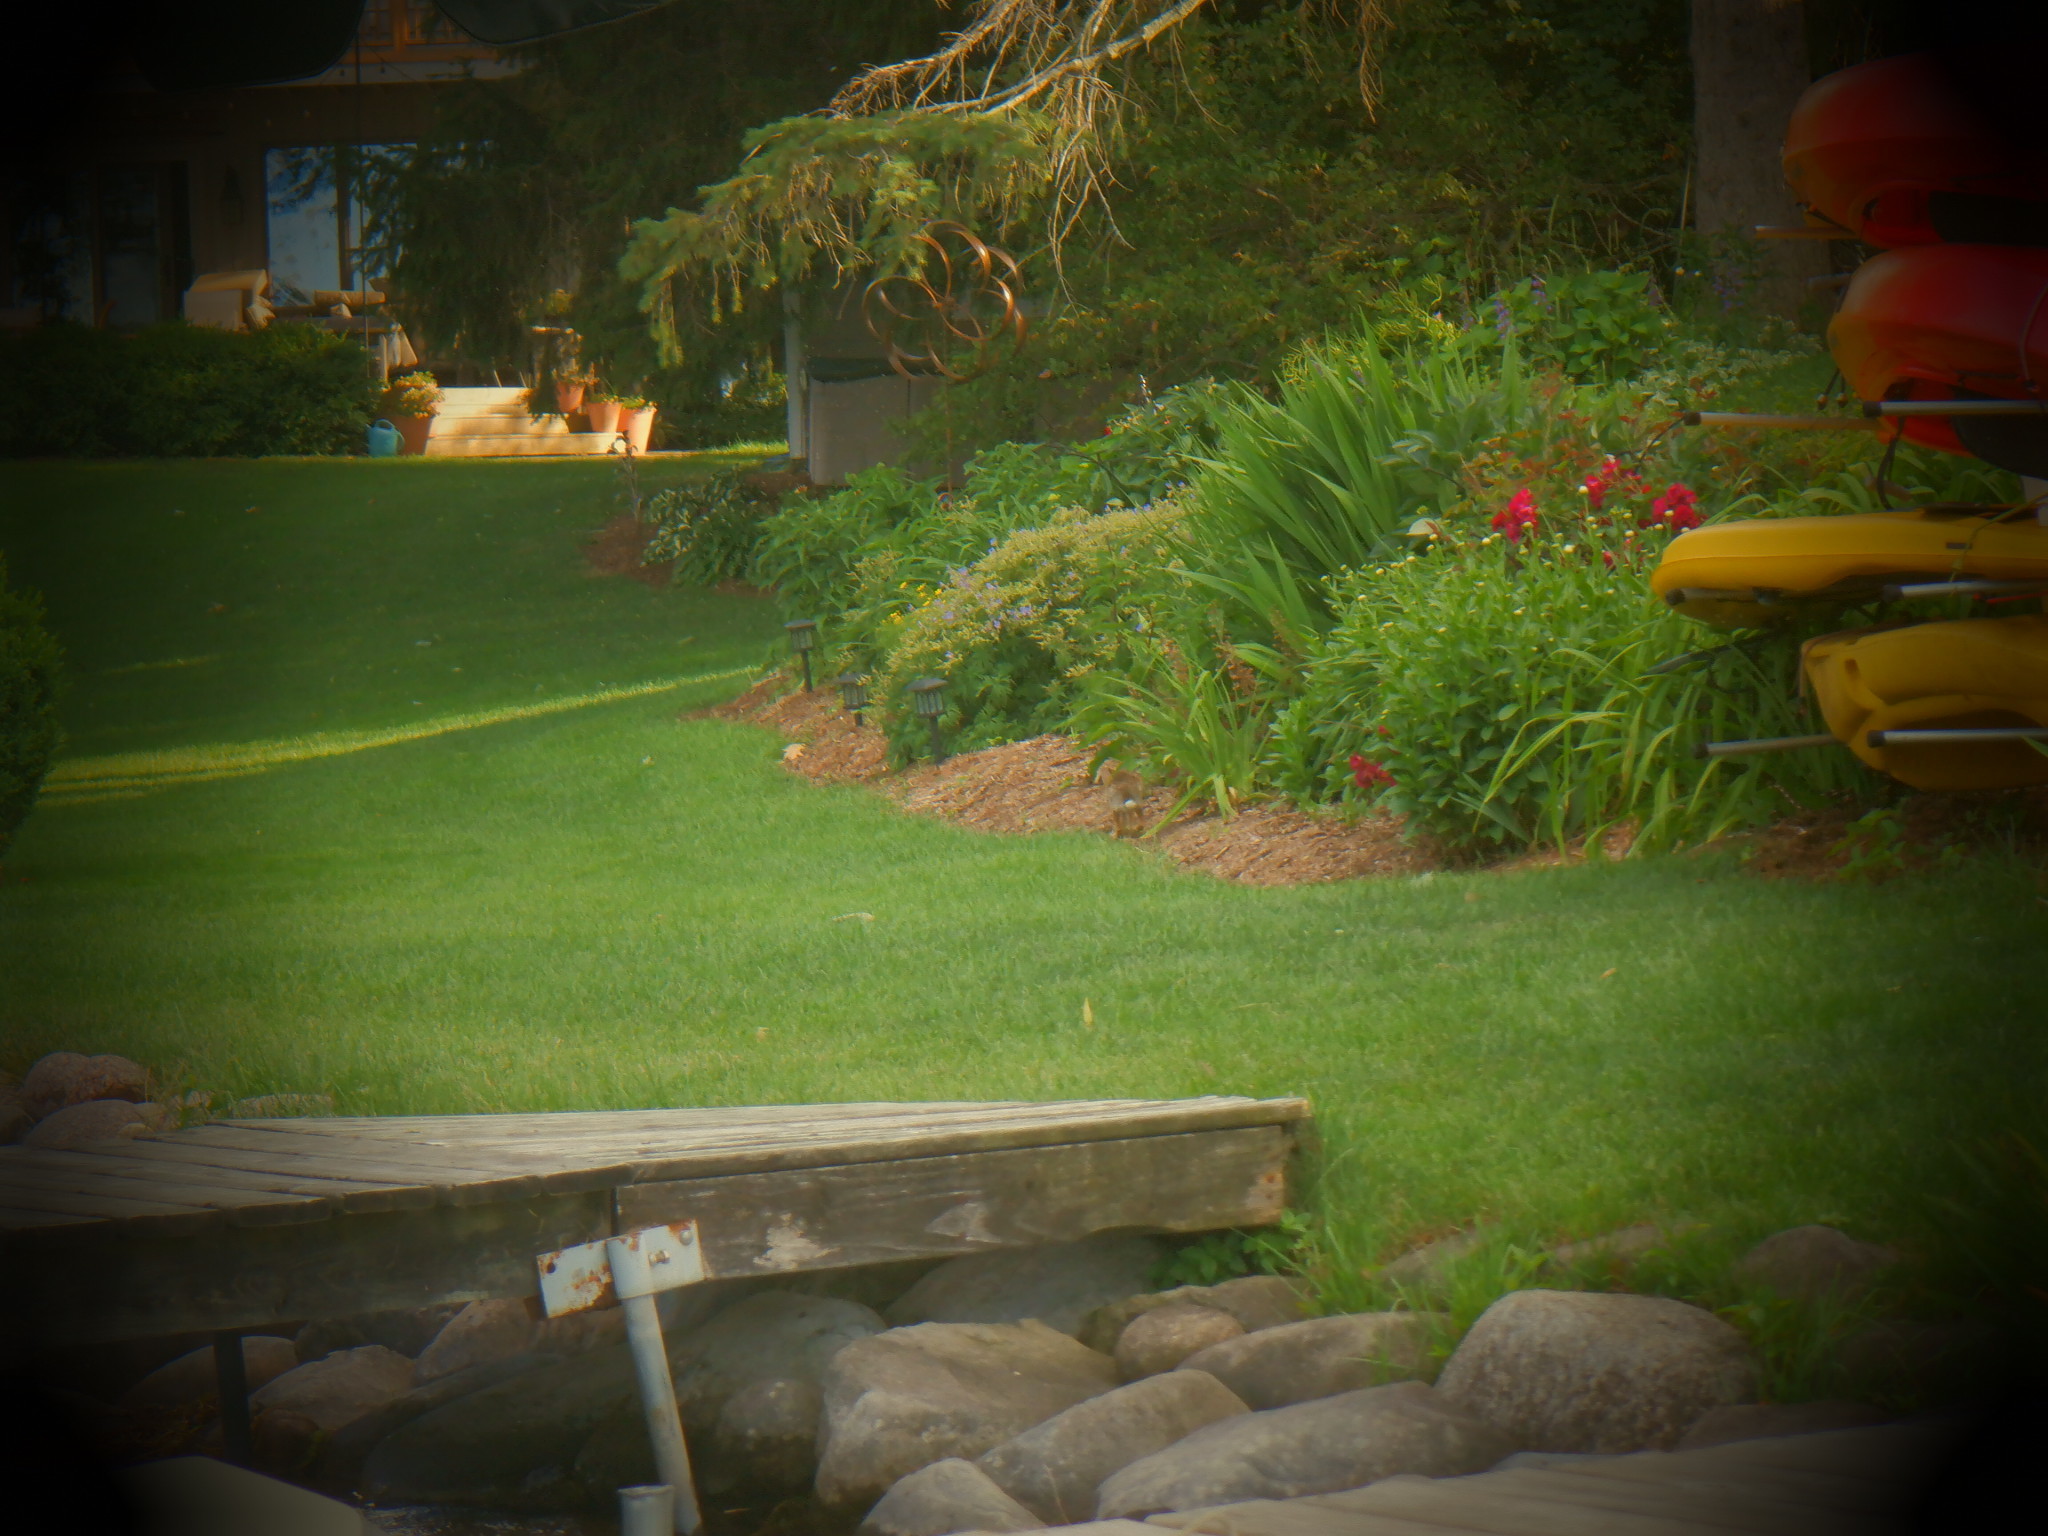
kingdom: Animalia
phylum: Chordata
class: Mammalia
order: Lagomorpha
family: Leporidae
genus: Sylvilagus
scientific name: Sylvilagus floridanus
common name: Eastern cottontail
